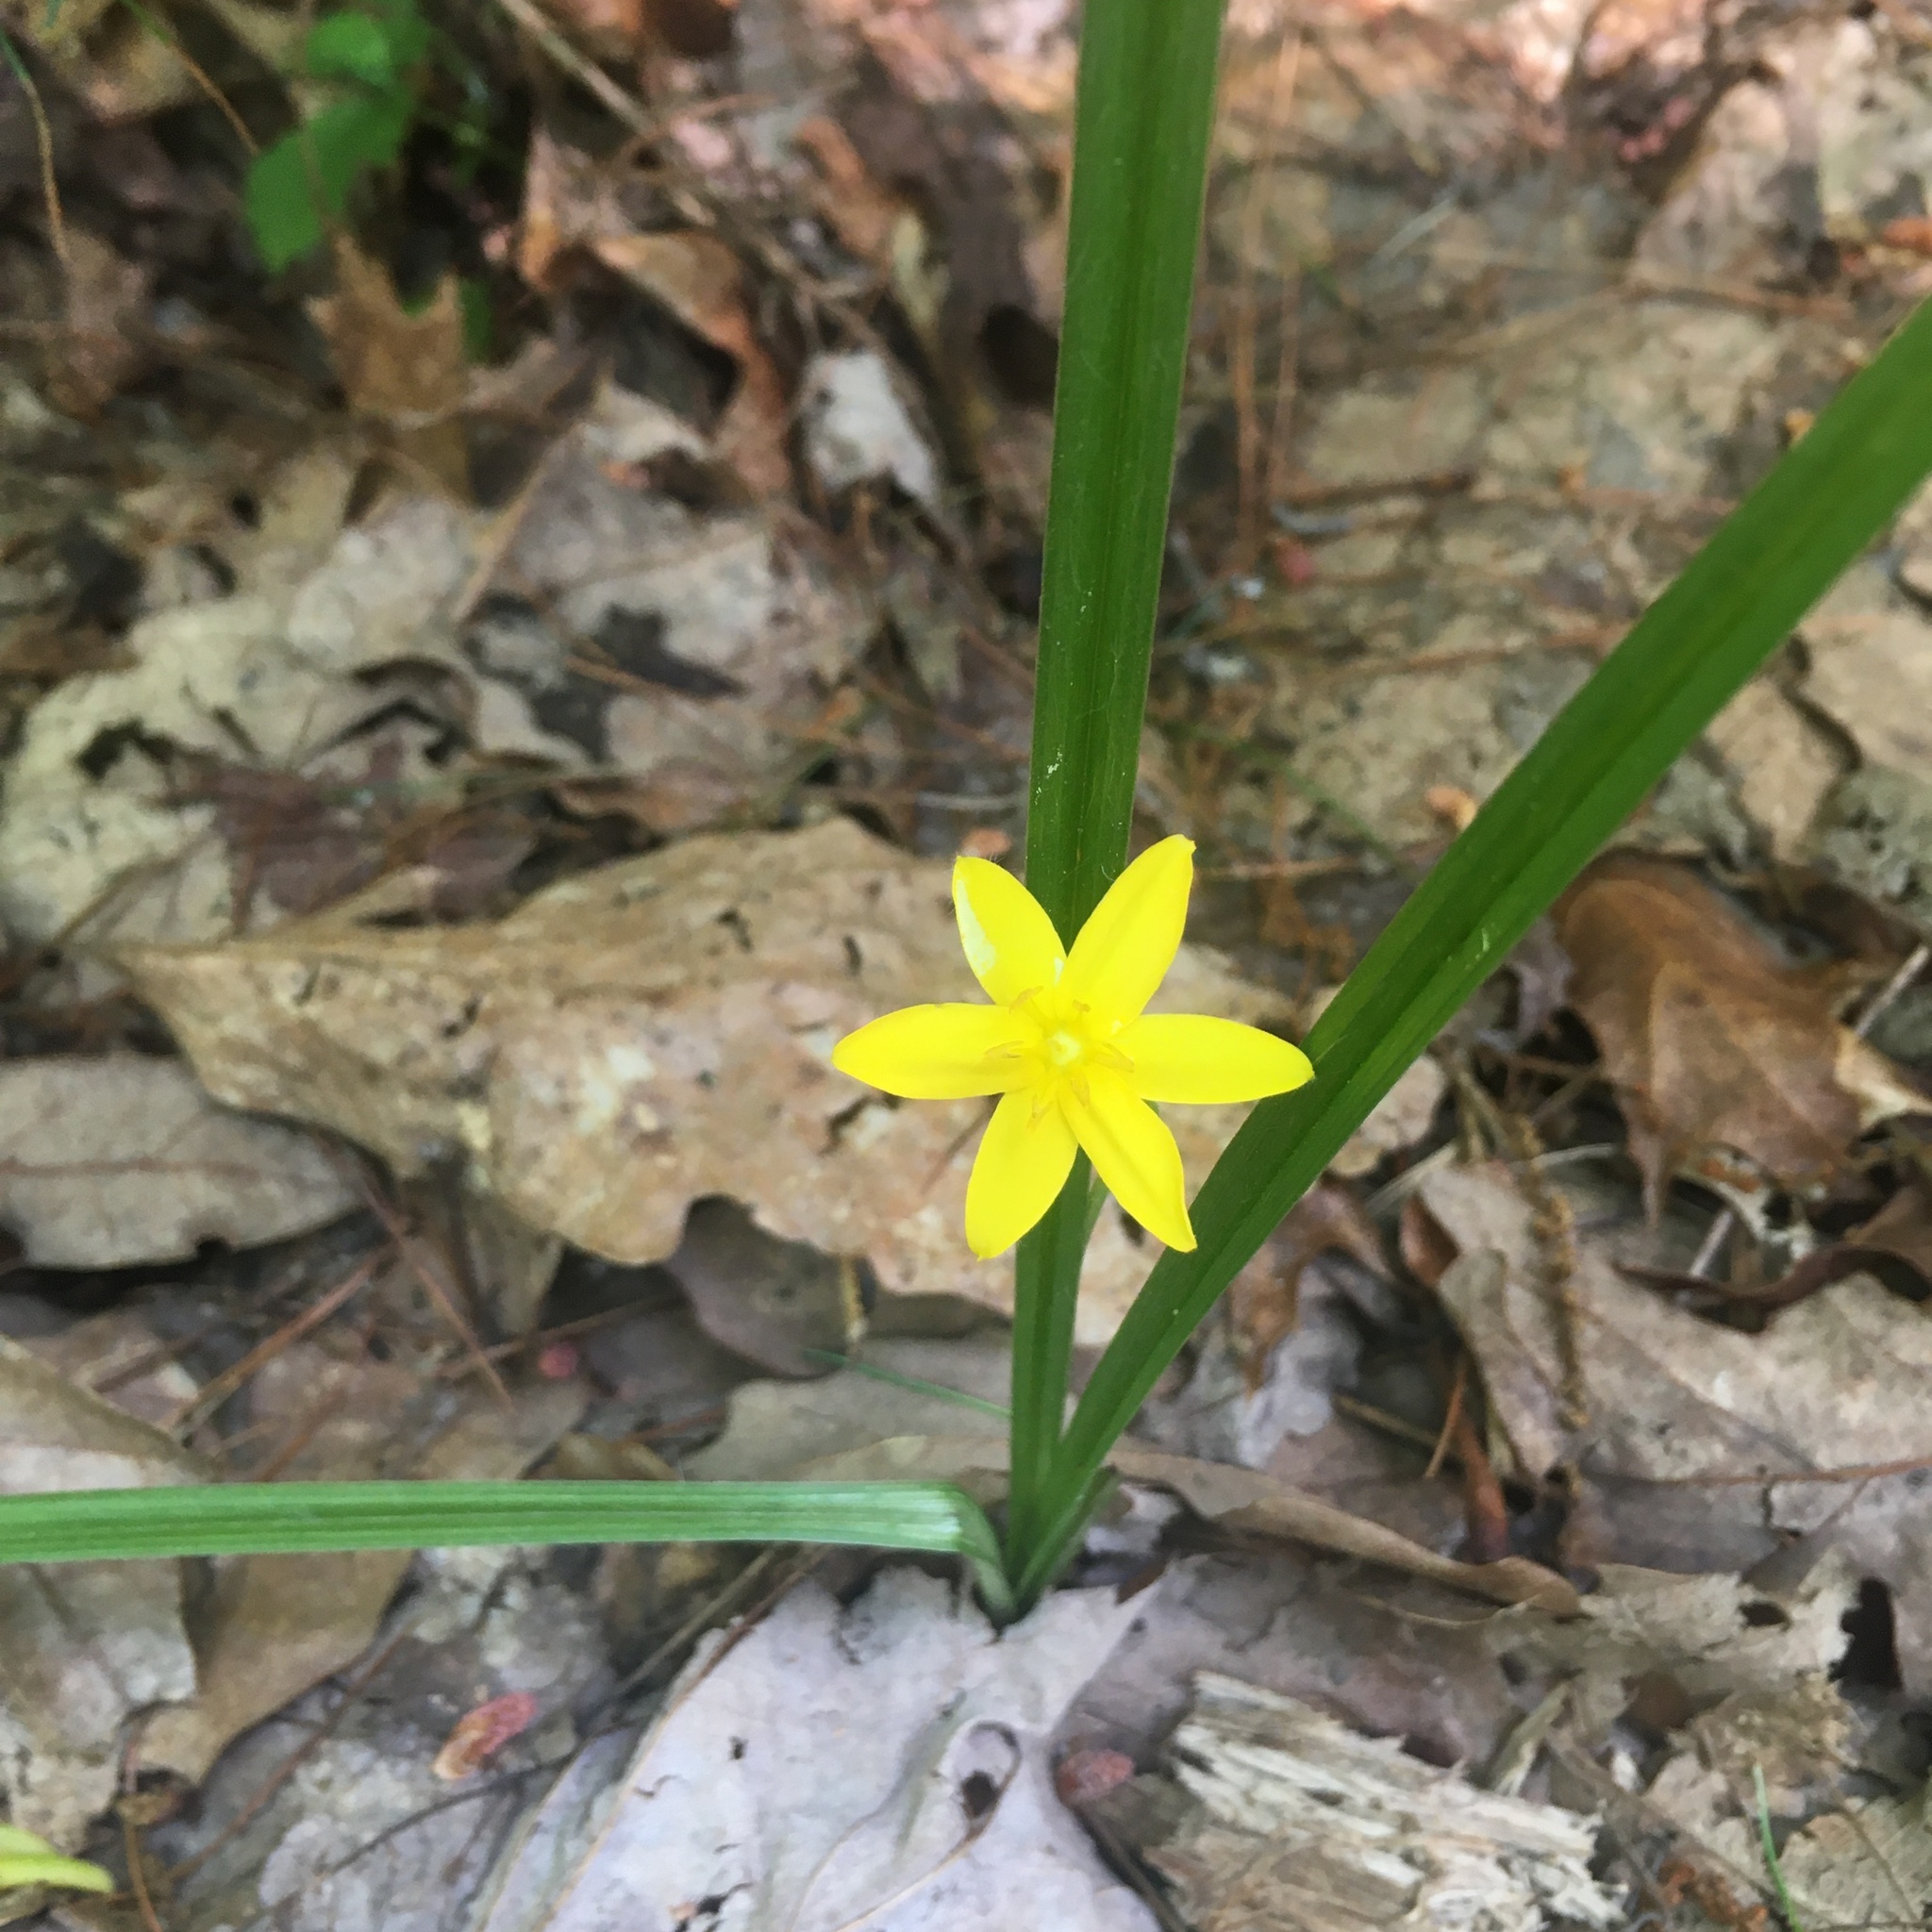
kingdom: Plantae
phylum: Tracheophyta
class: Liliopsida
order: Asparagales
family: Hypoxidaceae
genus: Hypoxis
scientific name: Hypoxis hirsuta
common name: Common goldstar
